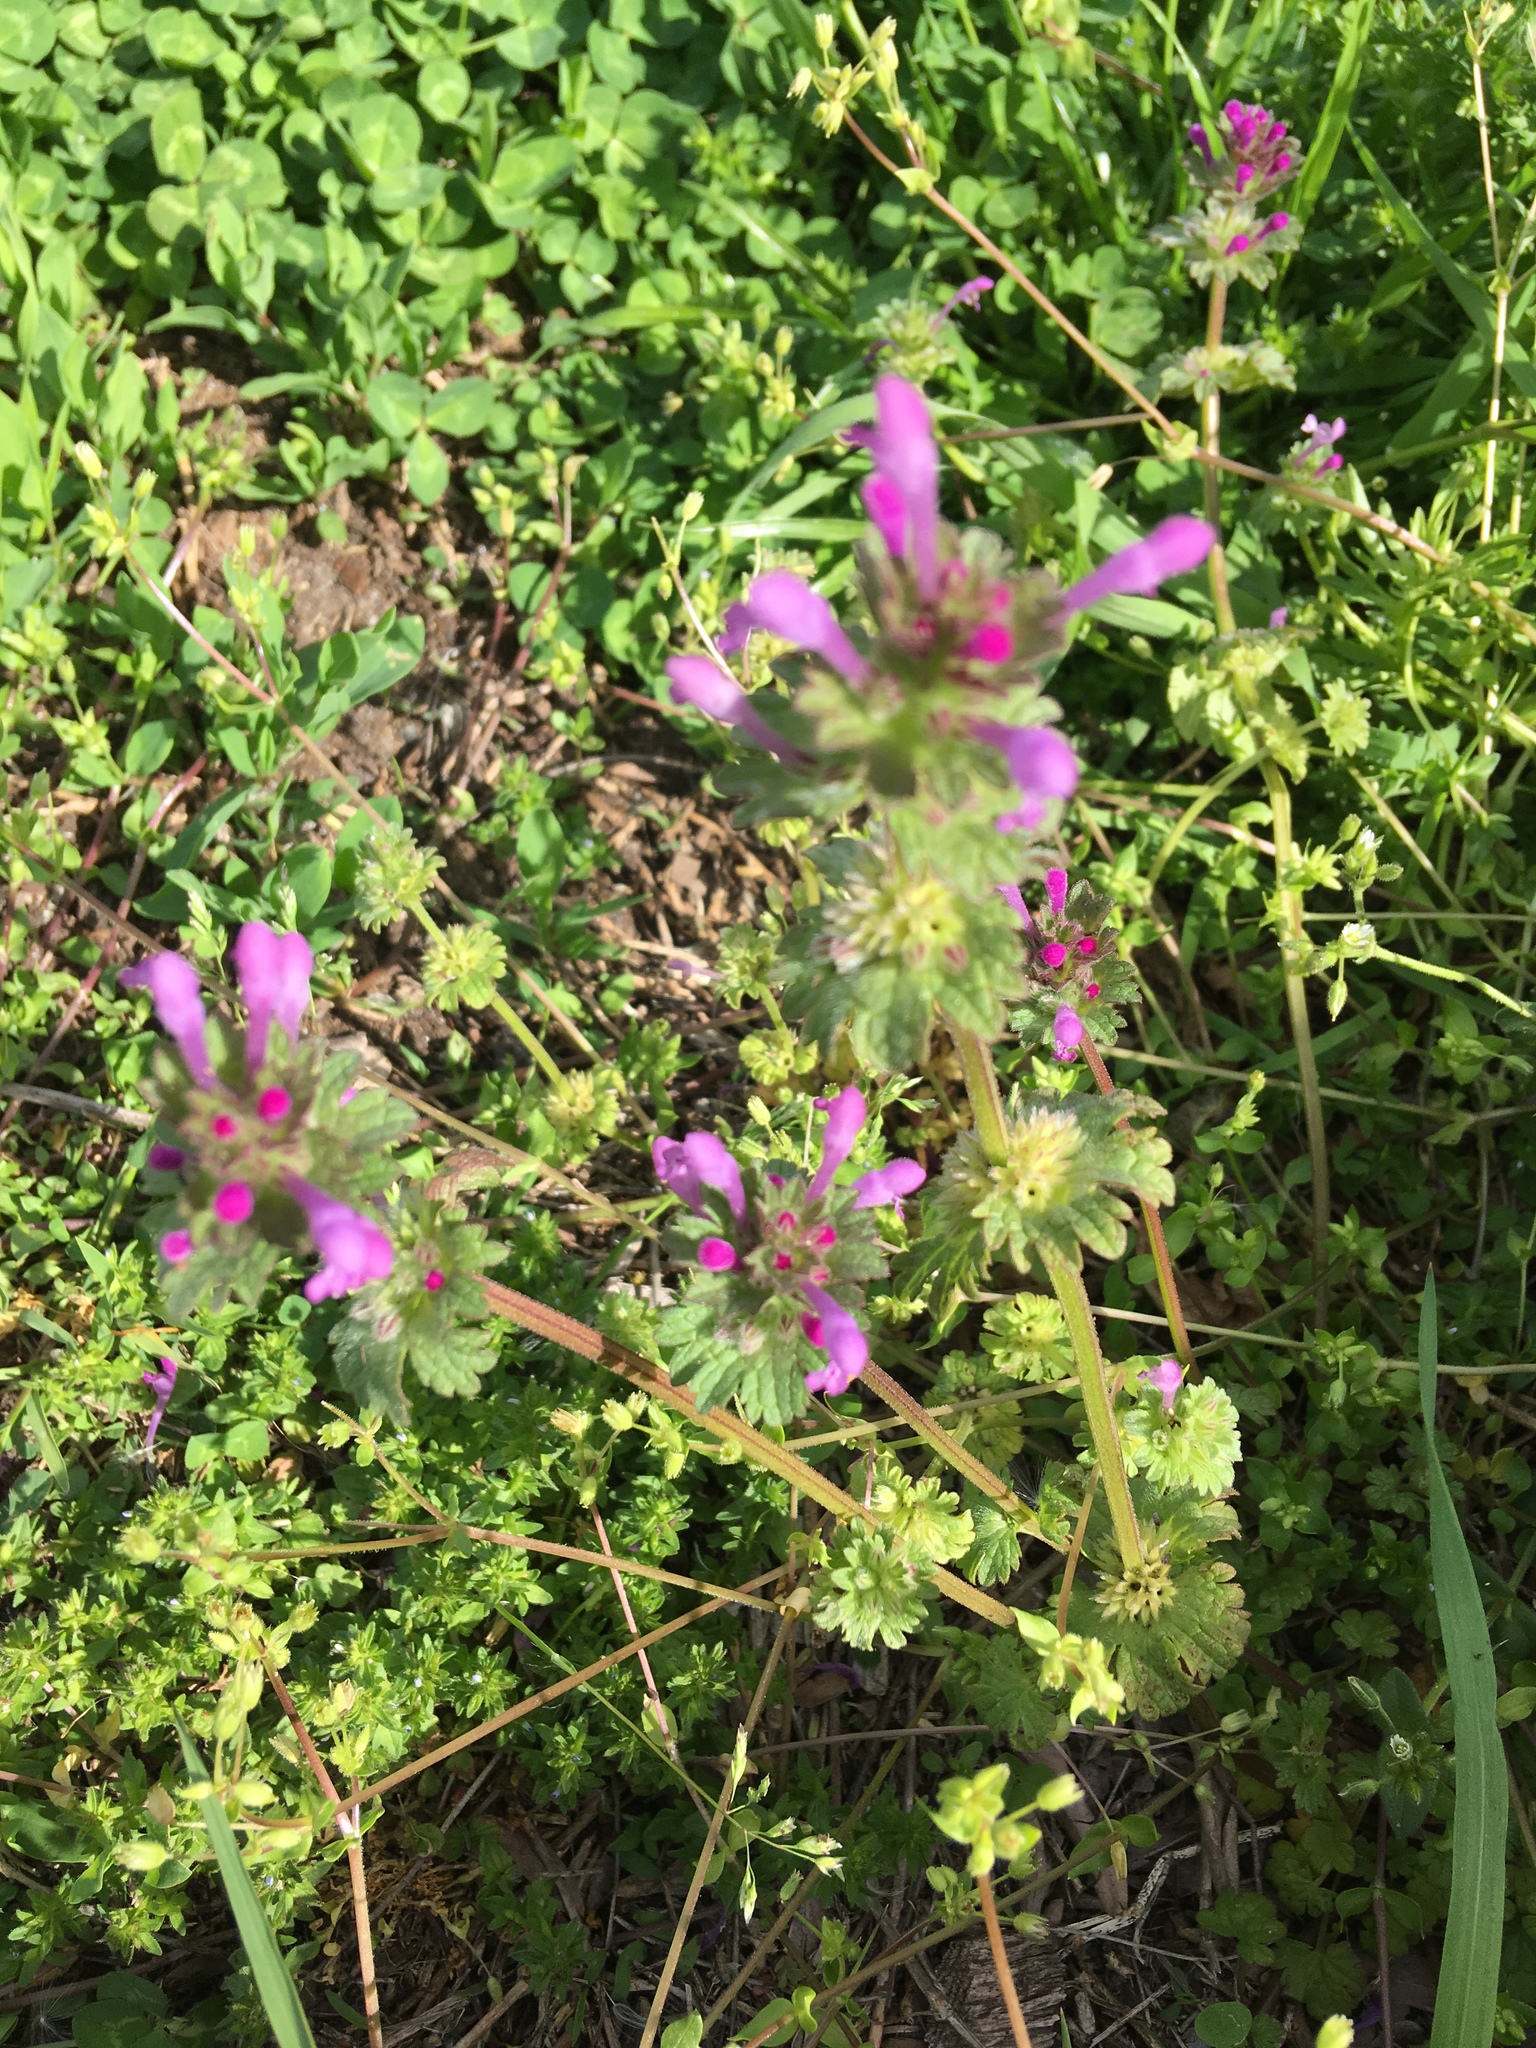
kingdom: Plantae
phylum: Tracheophyta
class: Magnoliopsida
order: Lamiales
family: Lamiaceae
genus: Lamium
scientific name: Lamium amplexicaule
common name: Henbit dead-nettle
